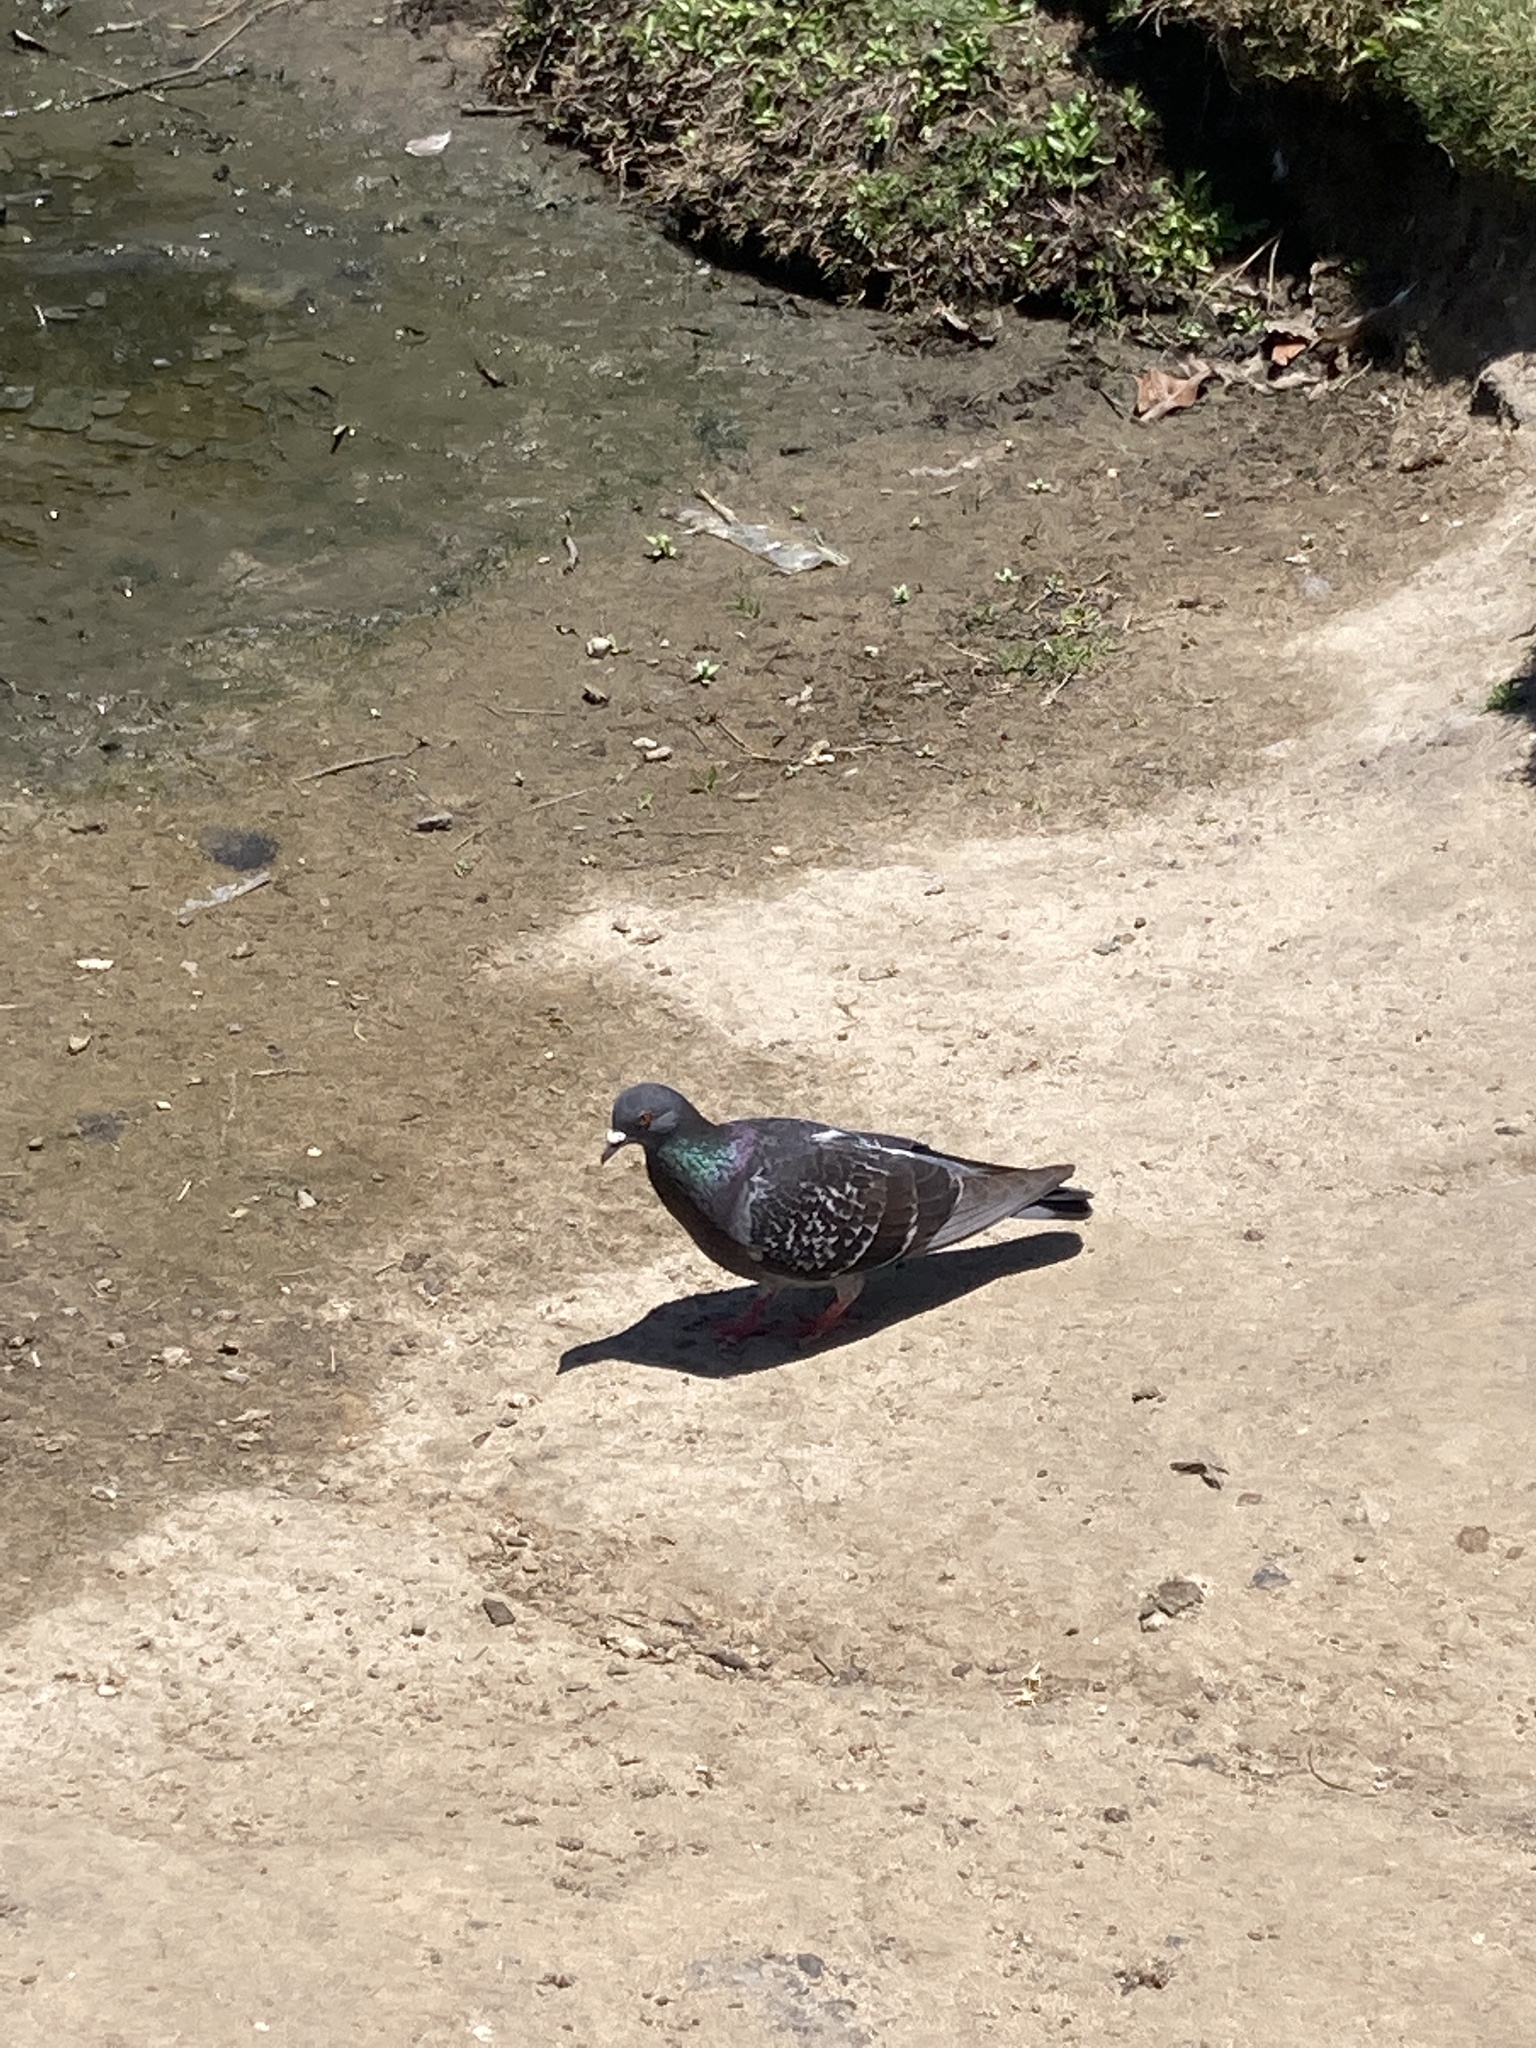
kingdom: Animalia
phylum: Chordata
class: Aves
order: Columbiformes
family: Columbidae
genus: Columba
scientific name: Columba livia
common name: Rock pigeon
